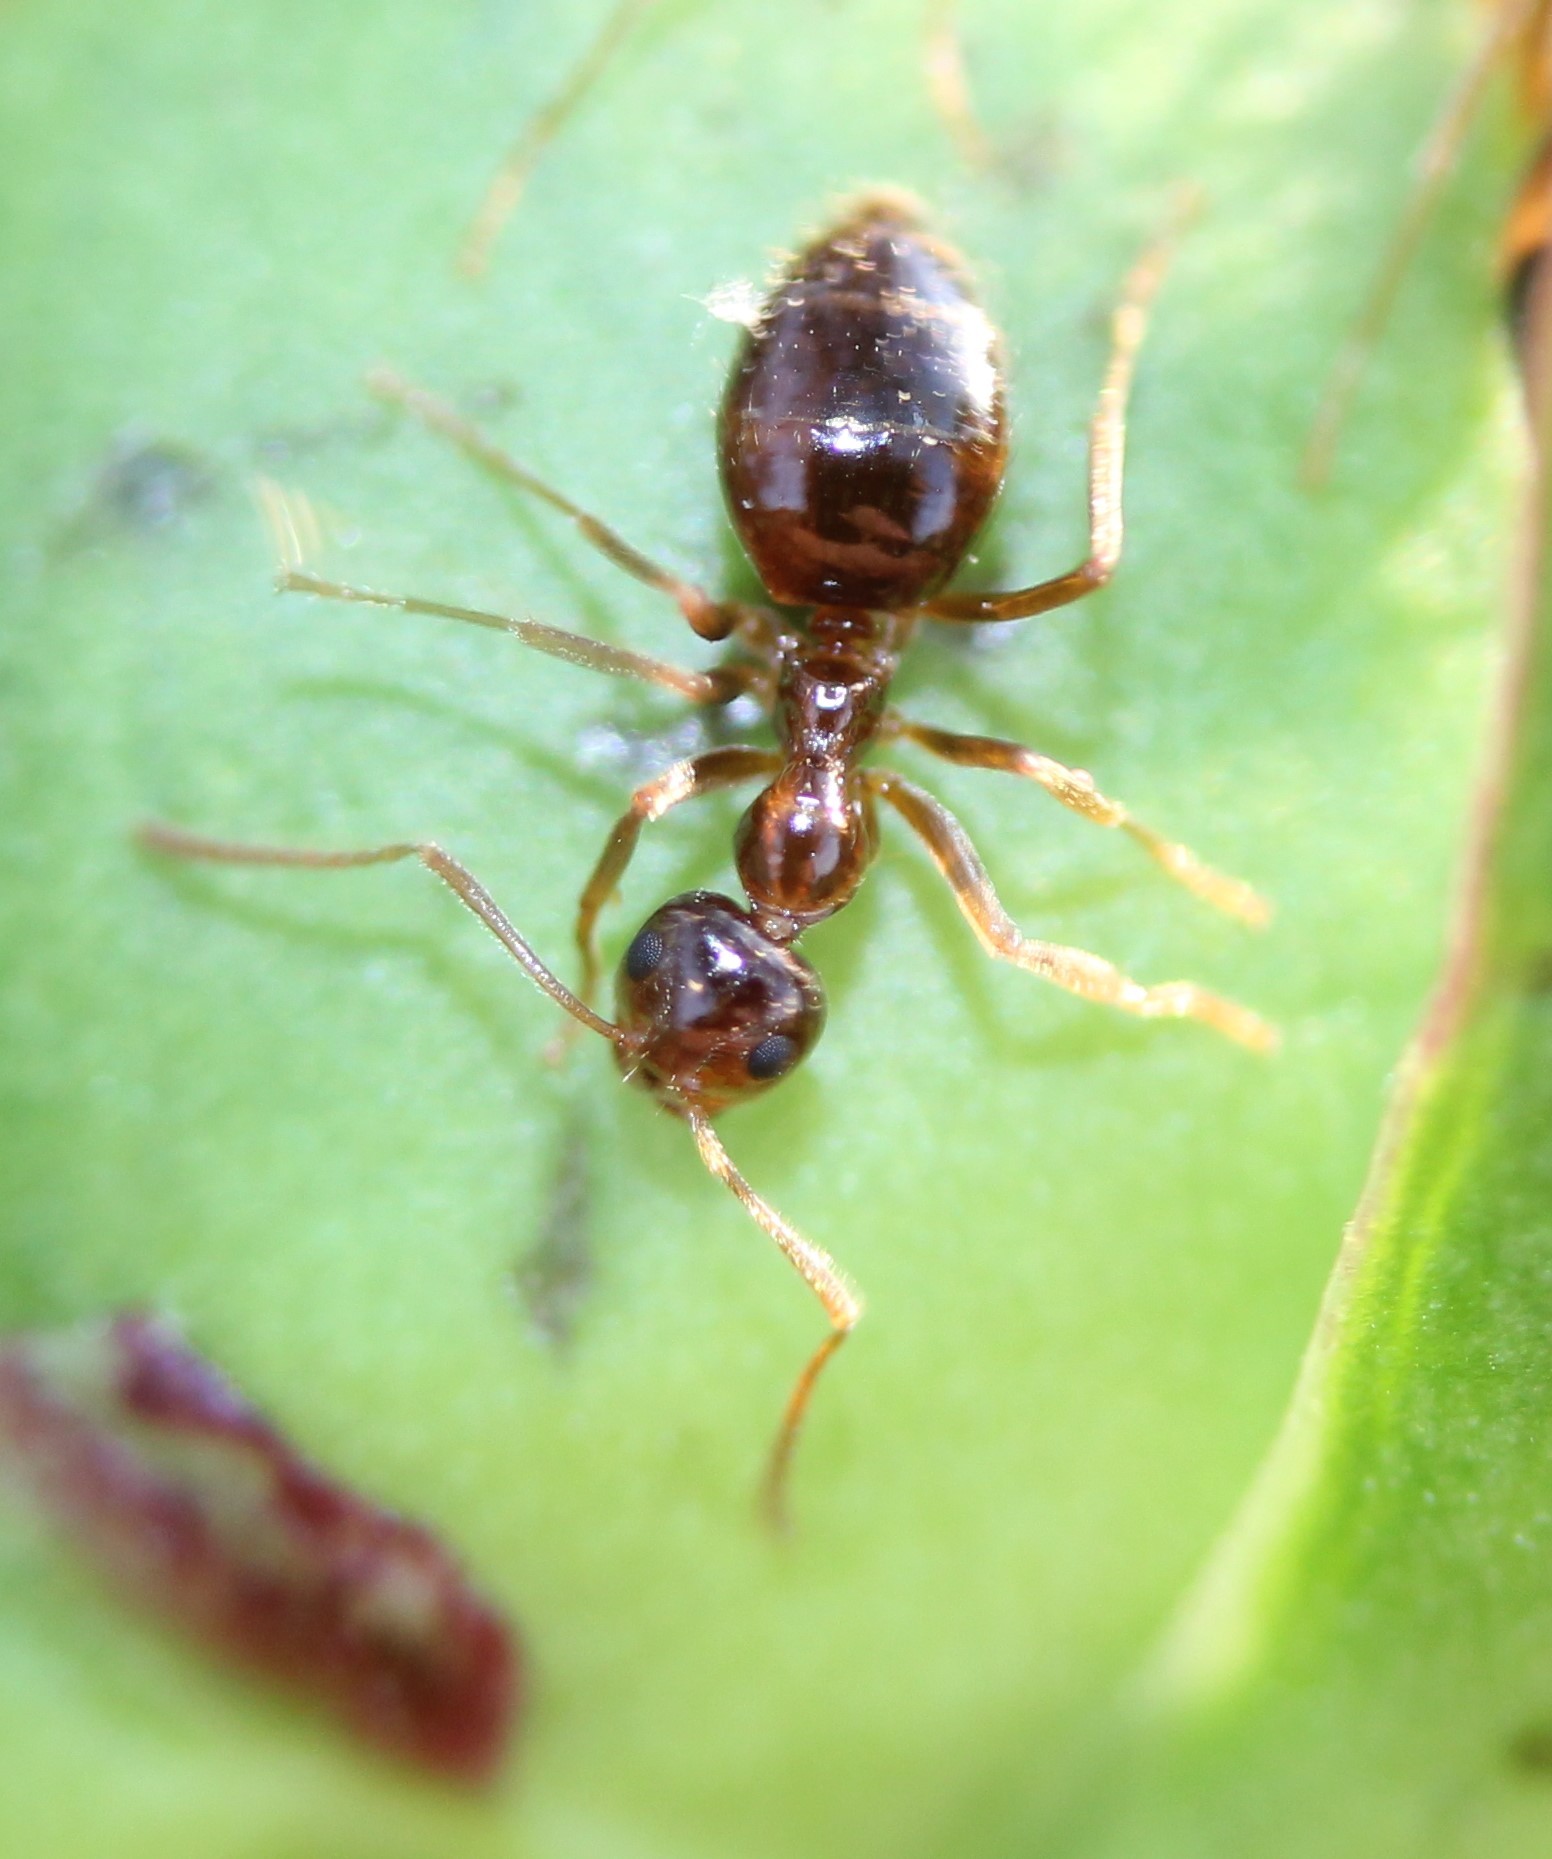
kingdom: Animalia
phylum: Arthropoda
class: Insecta
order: Hymenoptera
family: Formicidae
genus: Prenolepis
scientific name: Prenolepis imparis
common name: Small honey ant
